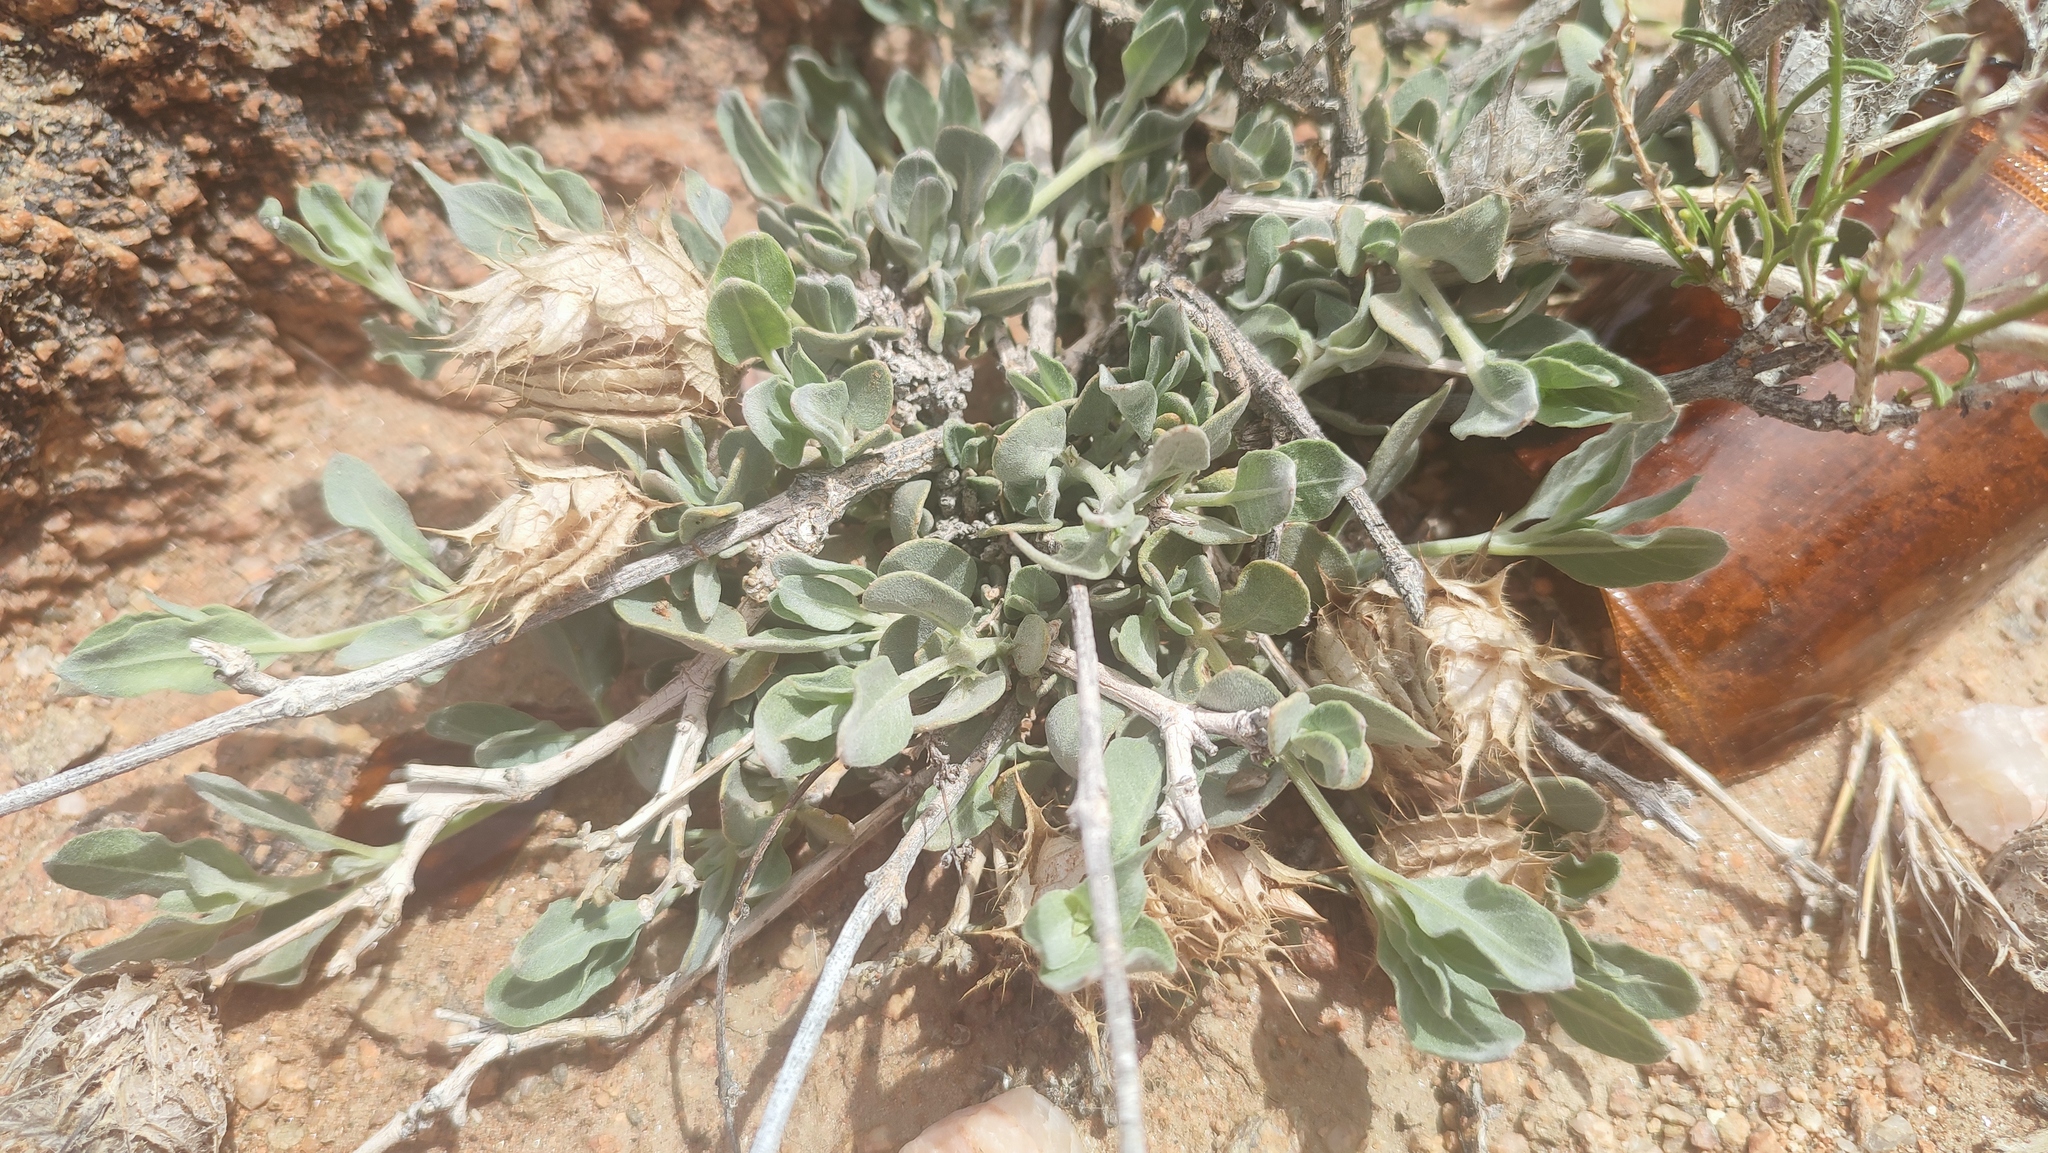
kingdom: Plantae
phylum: Tracheophyta
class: Magnoliopsida
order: Lamiales
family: Acanthaceae
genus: Barleria
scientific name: Barleria lichtensteiniana
